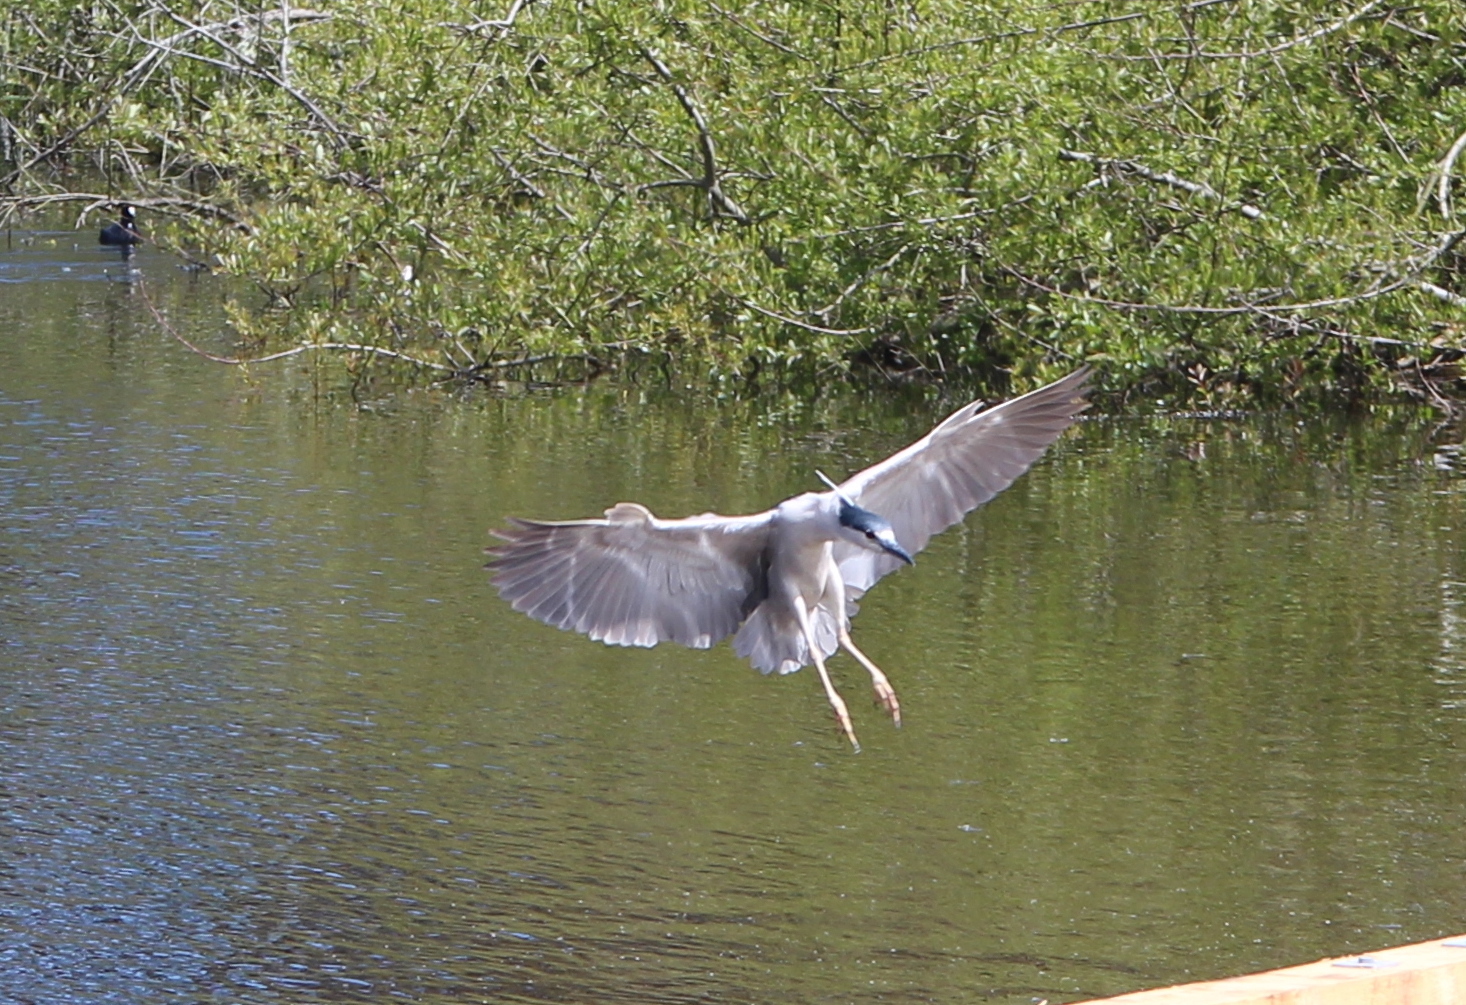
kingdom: Animalia
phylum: Chordata
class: Aves
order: Pelecaniformes
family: Ardeidae
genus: Nycticorax
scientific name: Nycticorax nycticorax
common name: Black-crowned night heron
